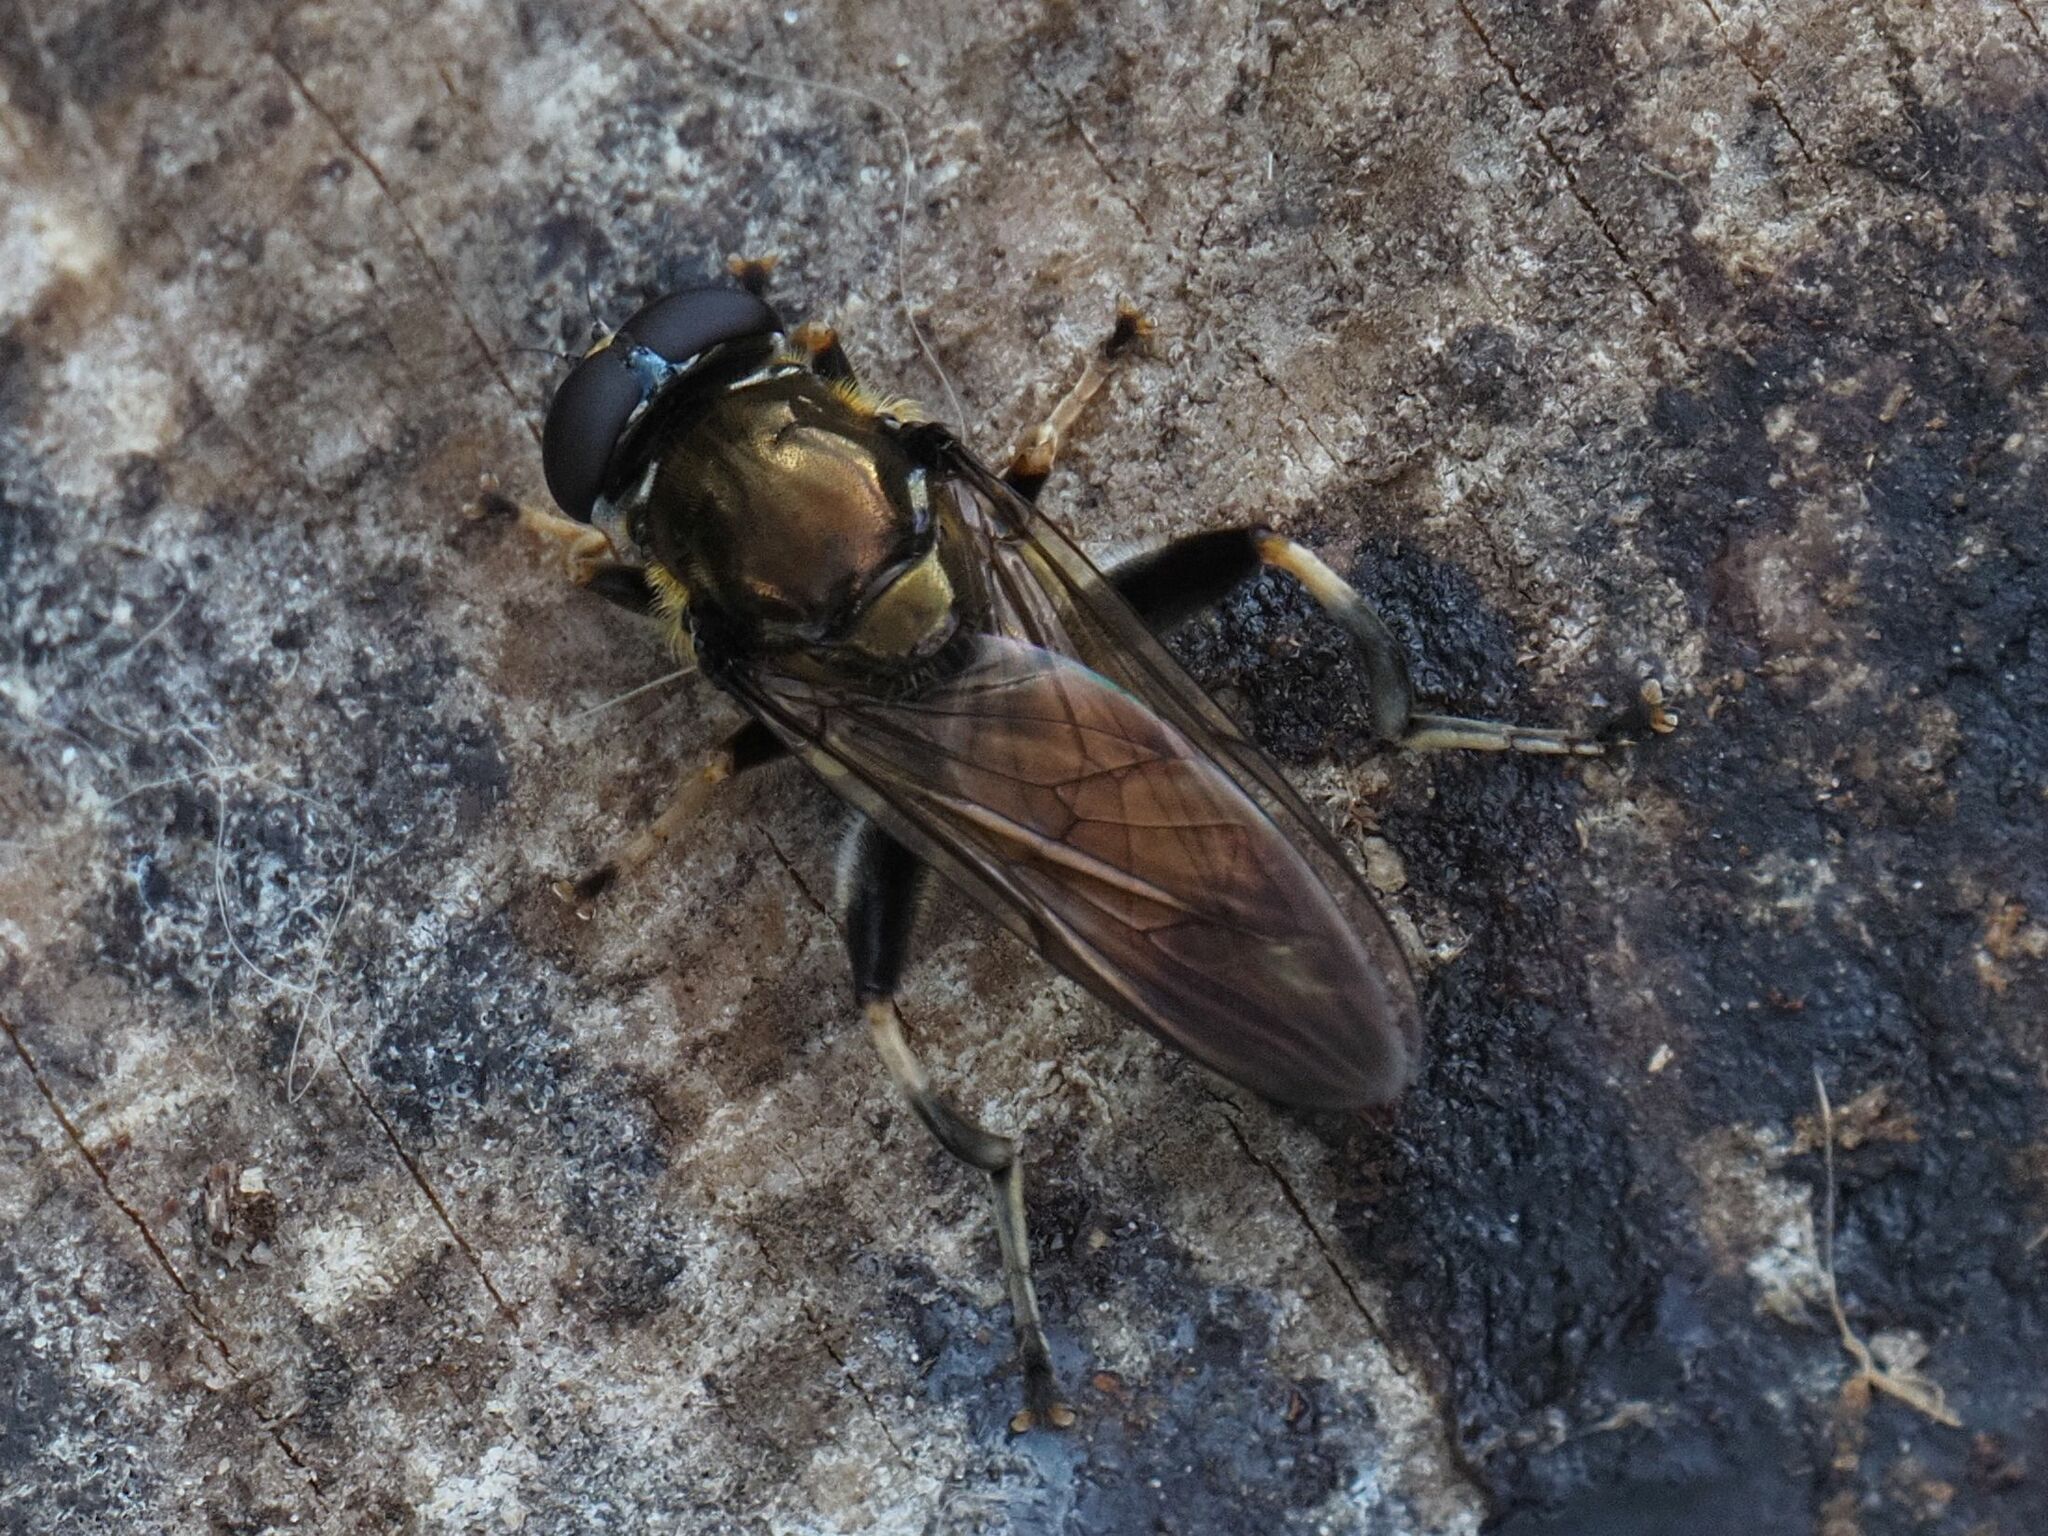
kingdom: Animalia
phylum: Arthropoda
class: Insecta
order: Diptera
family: Syrphidae
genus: Xylota
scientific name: Xylota segnis
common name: Brown-toed forest fly
